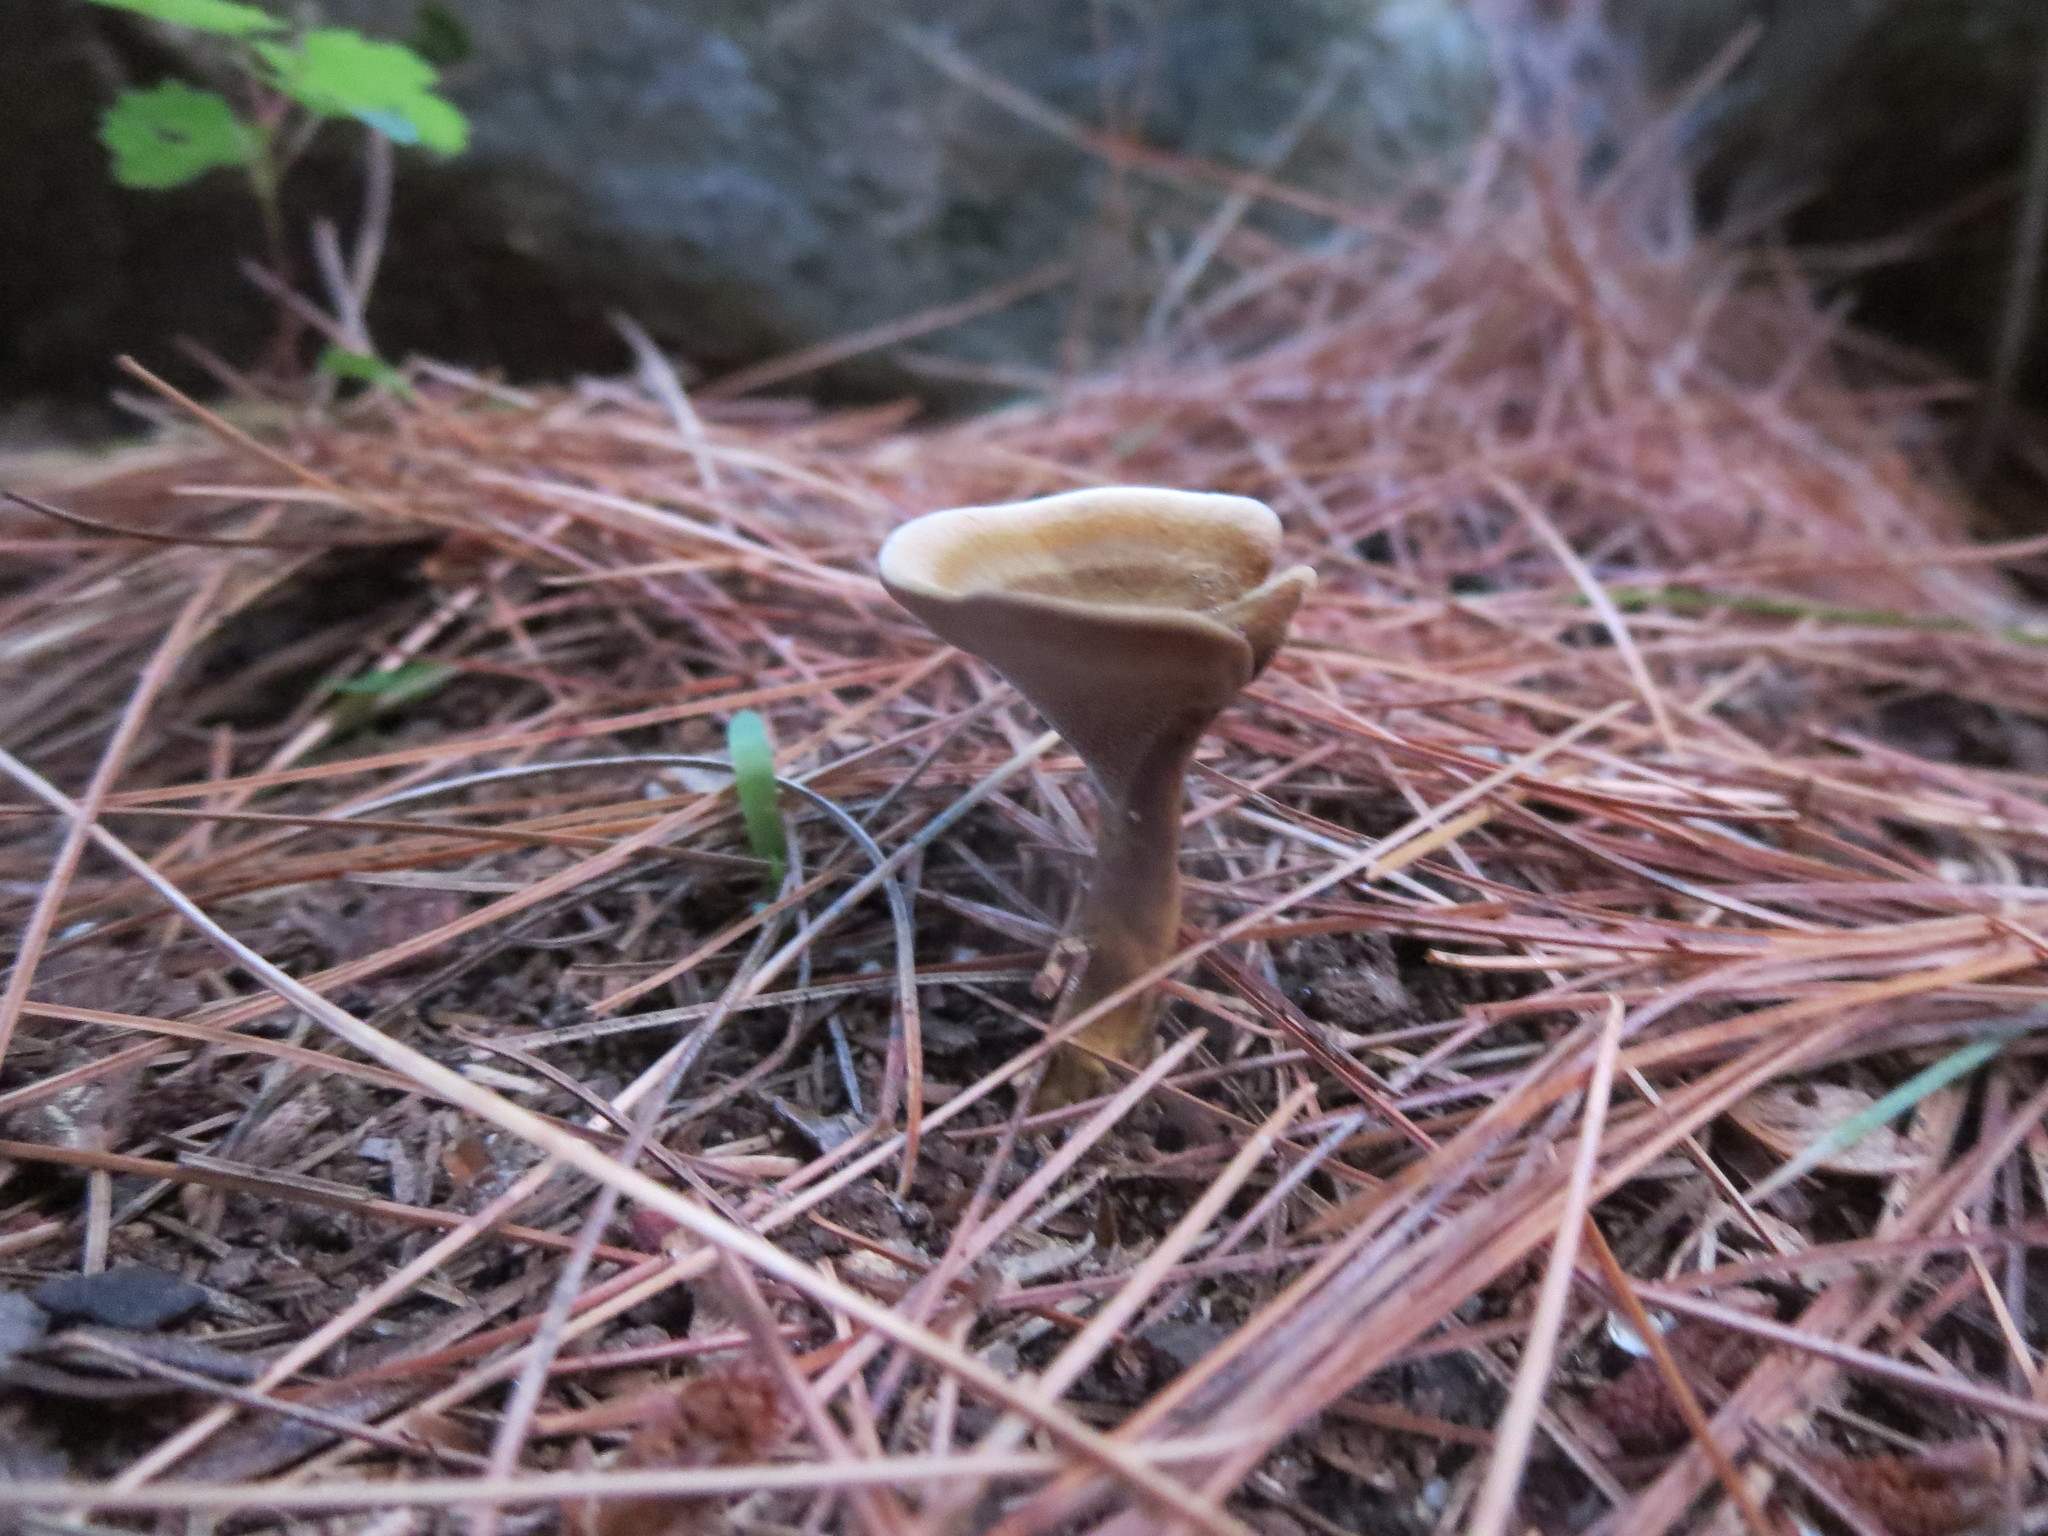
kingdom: Fungi
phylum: Basidiomycota
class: Agaricomycetes
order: Hymenochaetales
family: Hymenochaetaceae
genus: Coltricia
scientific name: Coltricia perennis
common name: Tiger's eye
